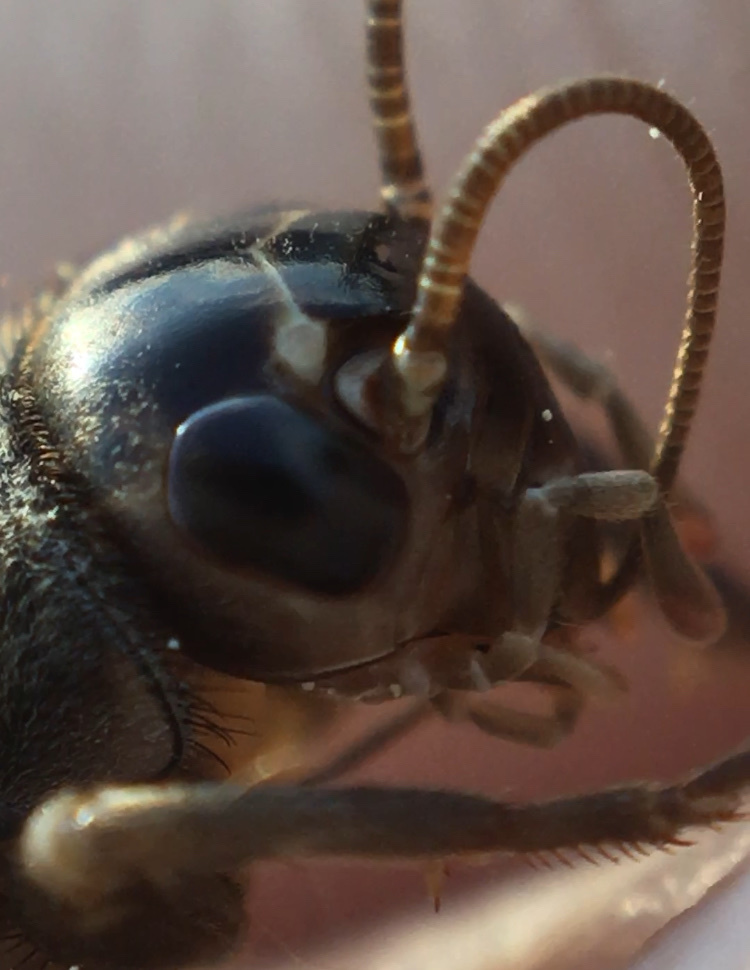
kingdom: Animalia
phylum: Arthropoda
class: Insecta
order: Orthoptera
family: Gryllidae
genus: Eumodicogryllus
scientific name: Eumodicogryllus bordigalensis
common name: Bordeaux cricket
